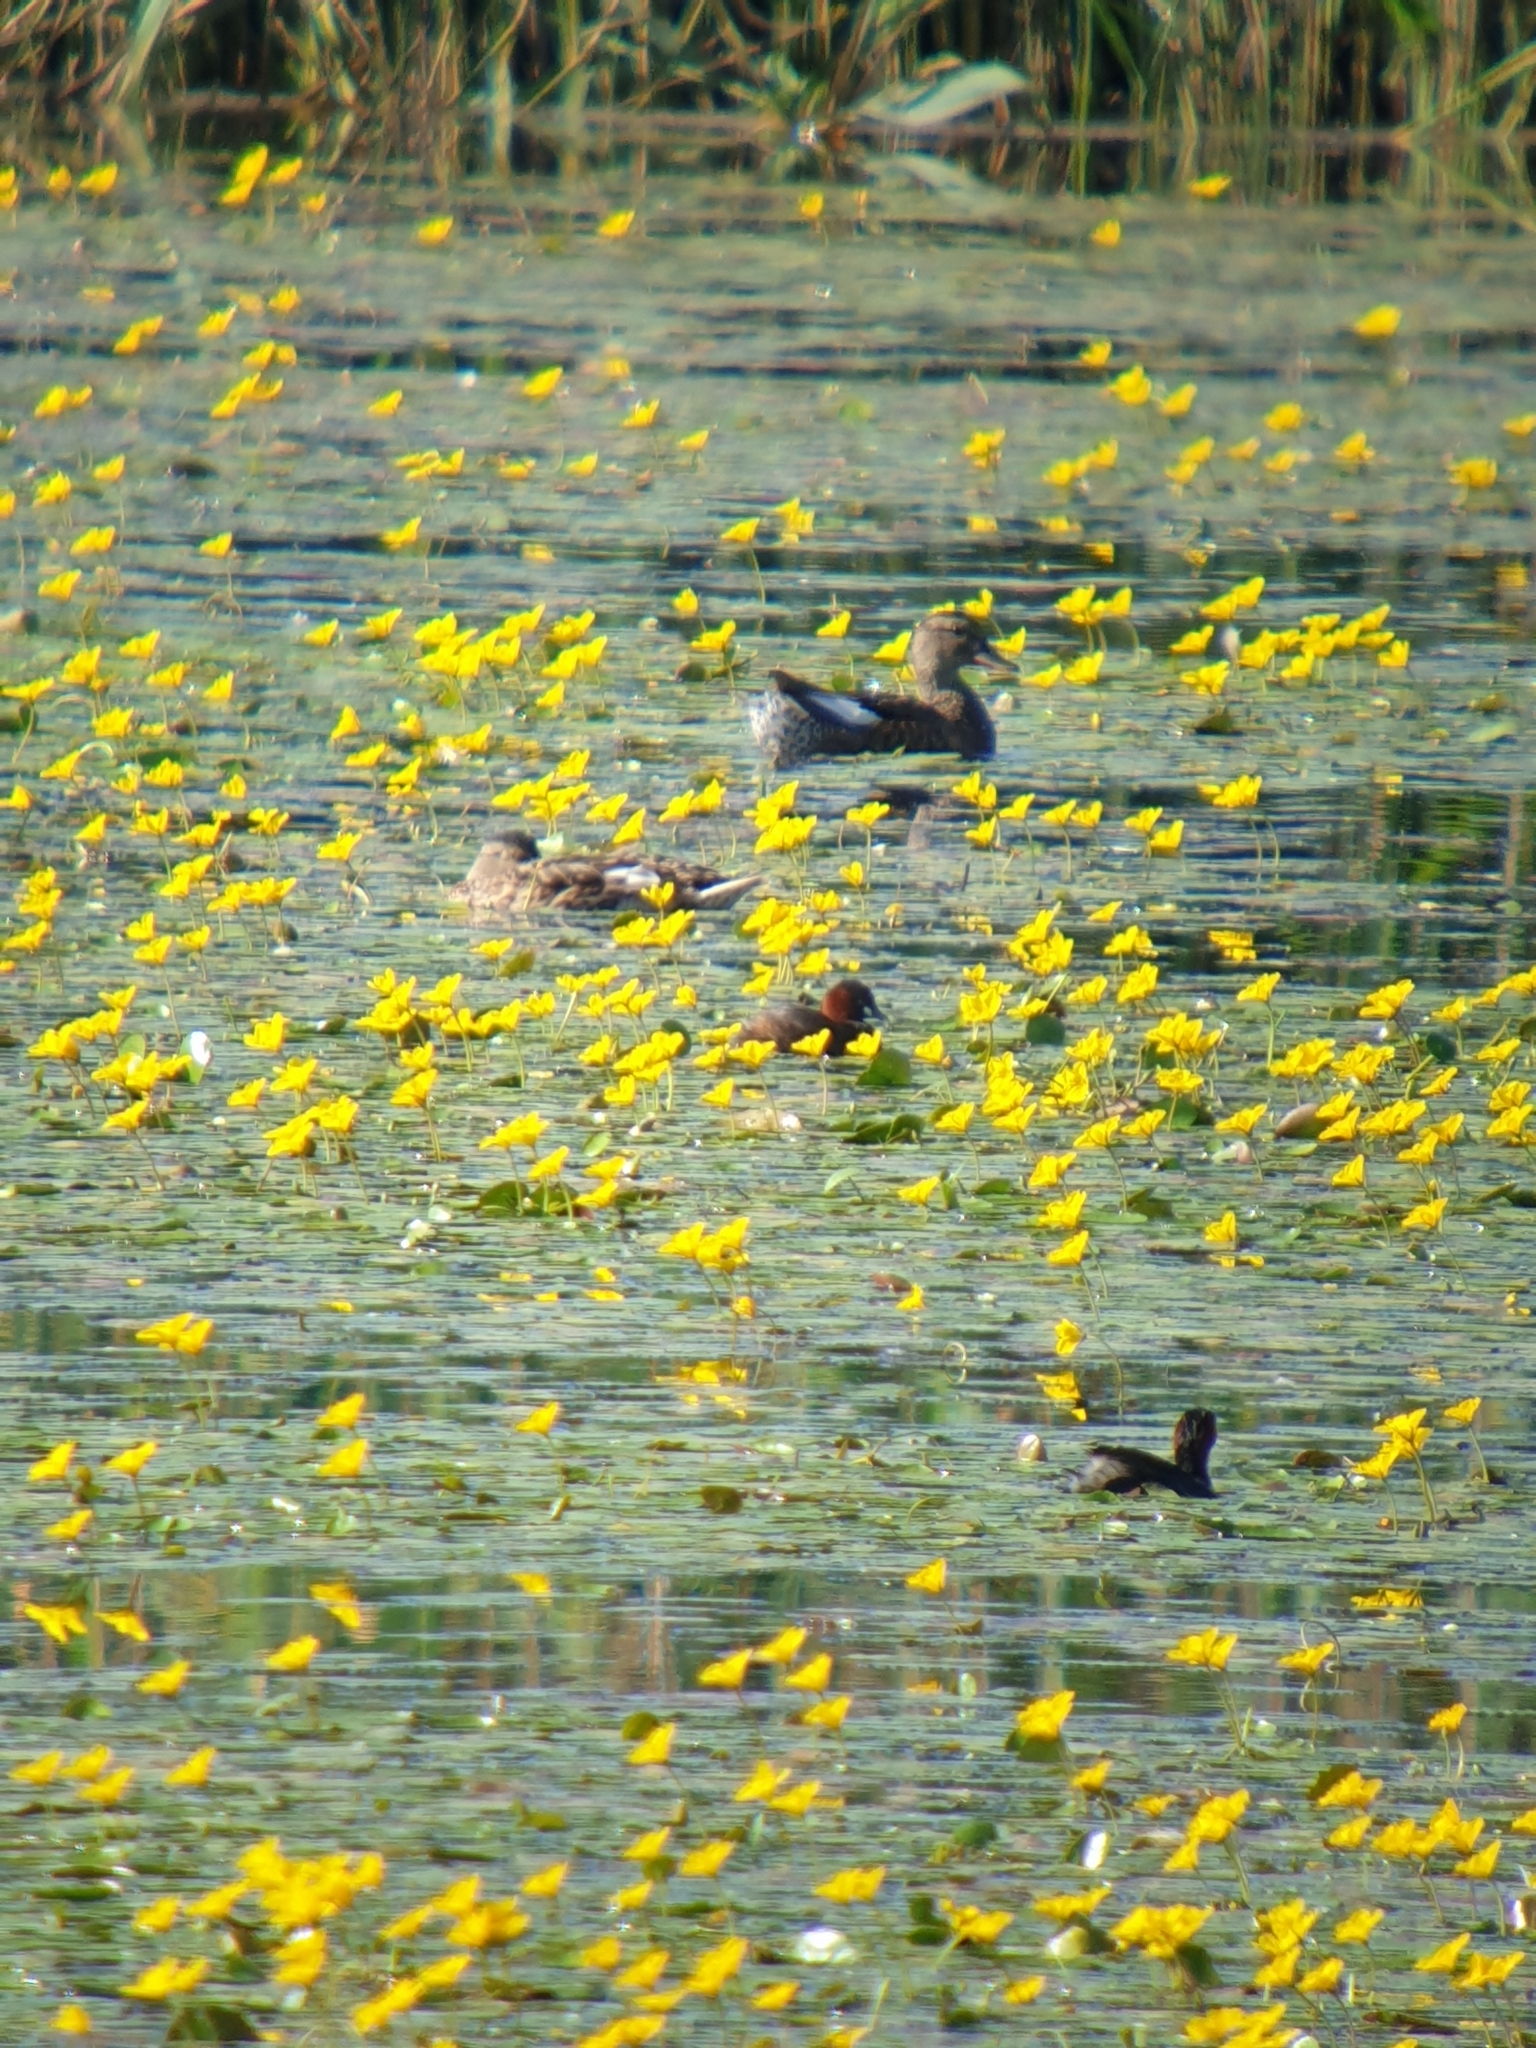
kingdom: Animalia
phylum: Chordata
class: Aves
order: Podicipediformes
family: Podicipedidae
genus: Tachybaptus
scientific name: Tachybaptus ruficollis
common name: Little grebe
